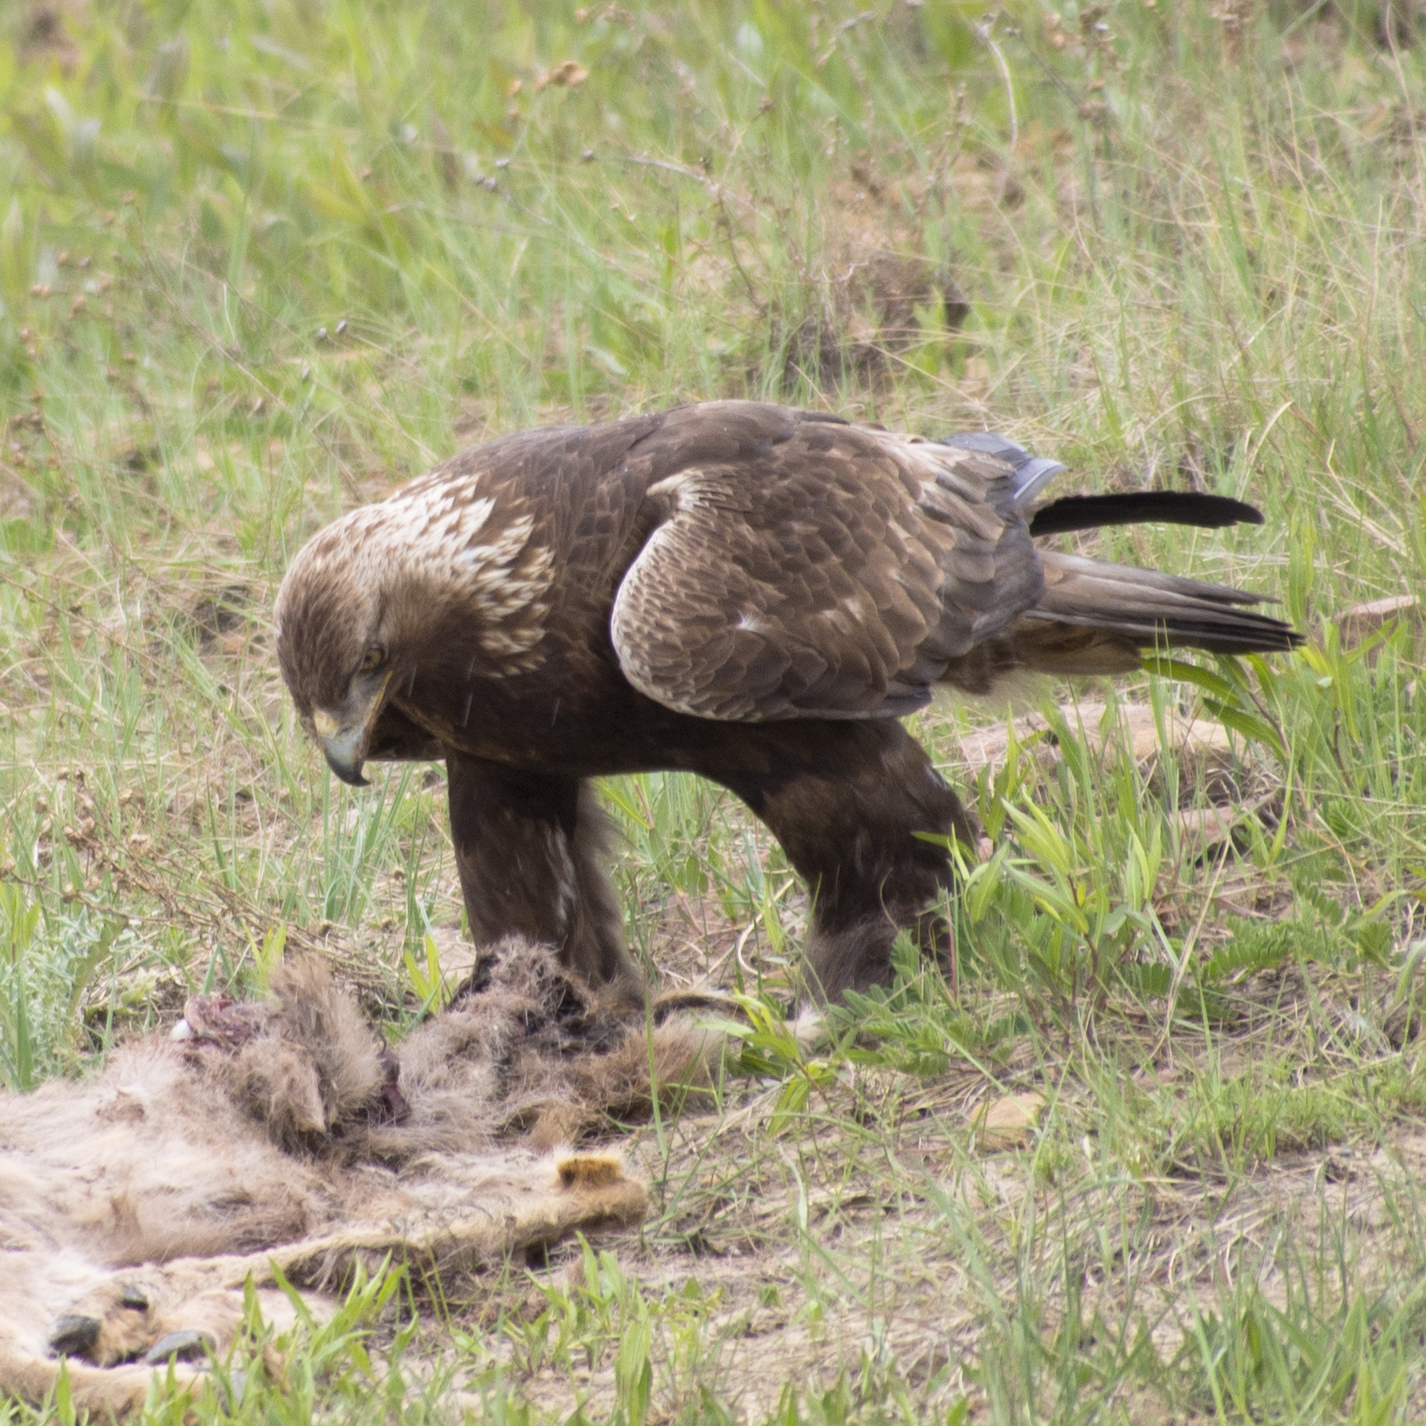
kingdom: Animalia
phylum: Chordata
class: Aves
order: Accipitriformes
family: Accipitridae
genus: Aquila
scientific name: Aquila chrysaetos
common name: Golden eagle
